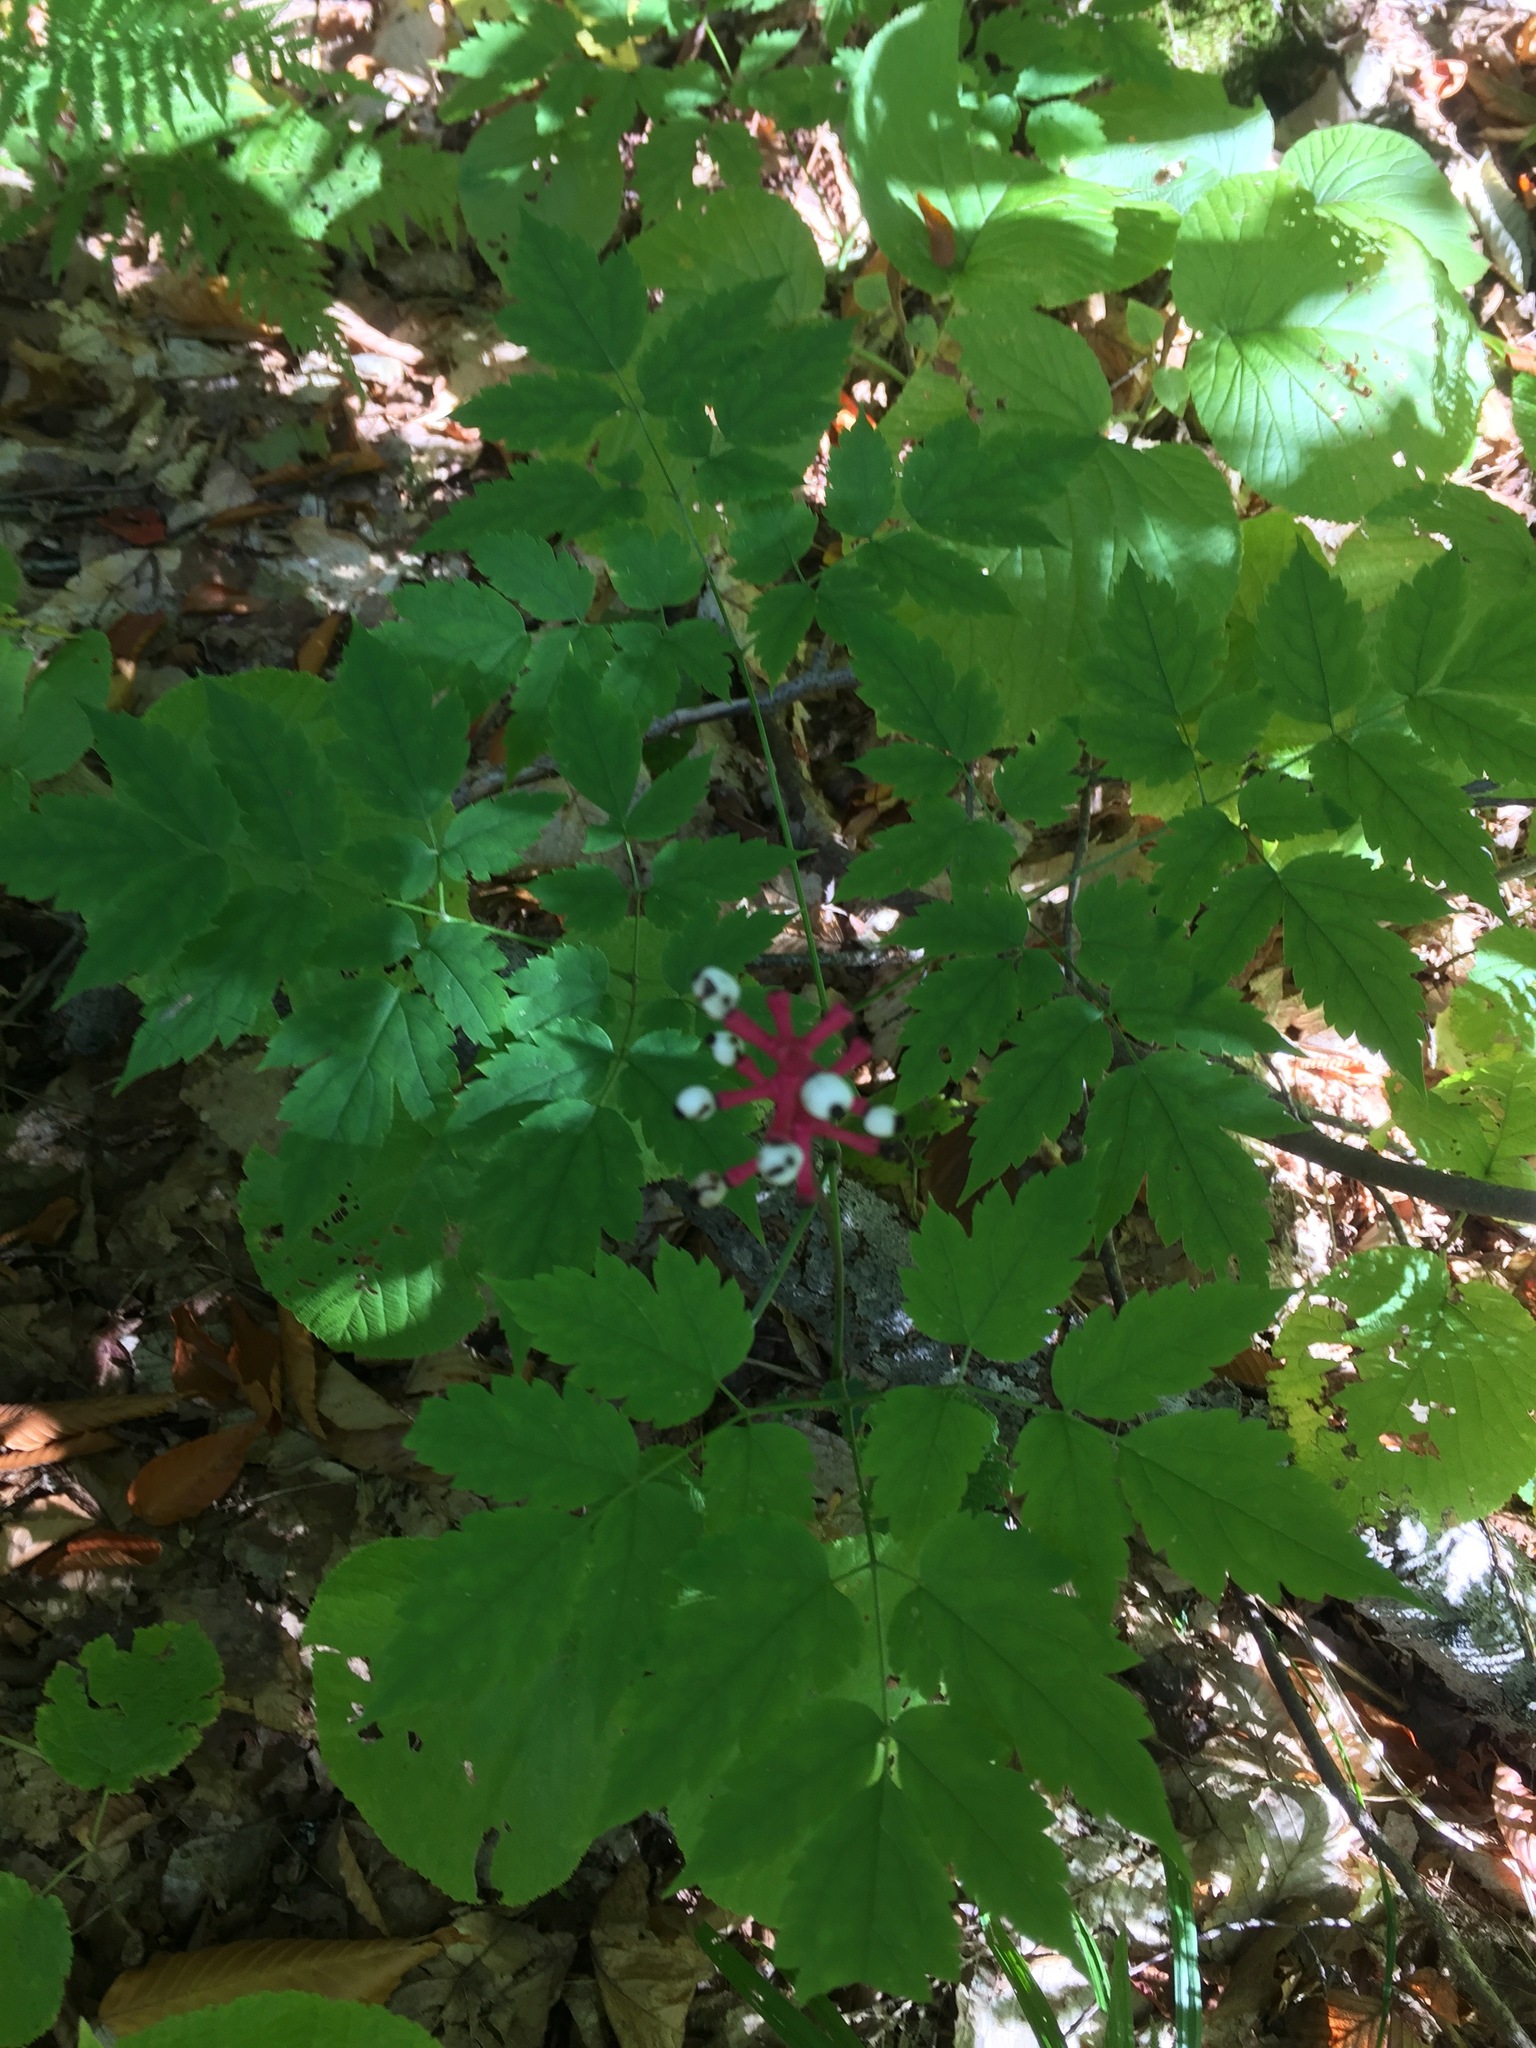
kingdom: Plantae
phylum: Tracheophyta
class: Magnoliopsida
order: Ranunculales
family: Ranunculaceae
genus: Actaea
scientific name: Actaea pachypoda
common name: Doll's-eyes
